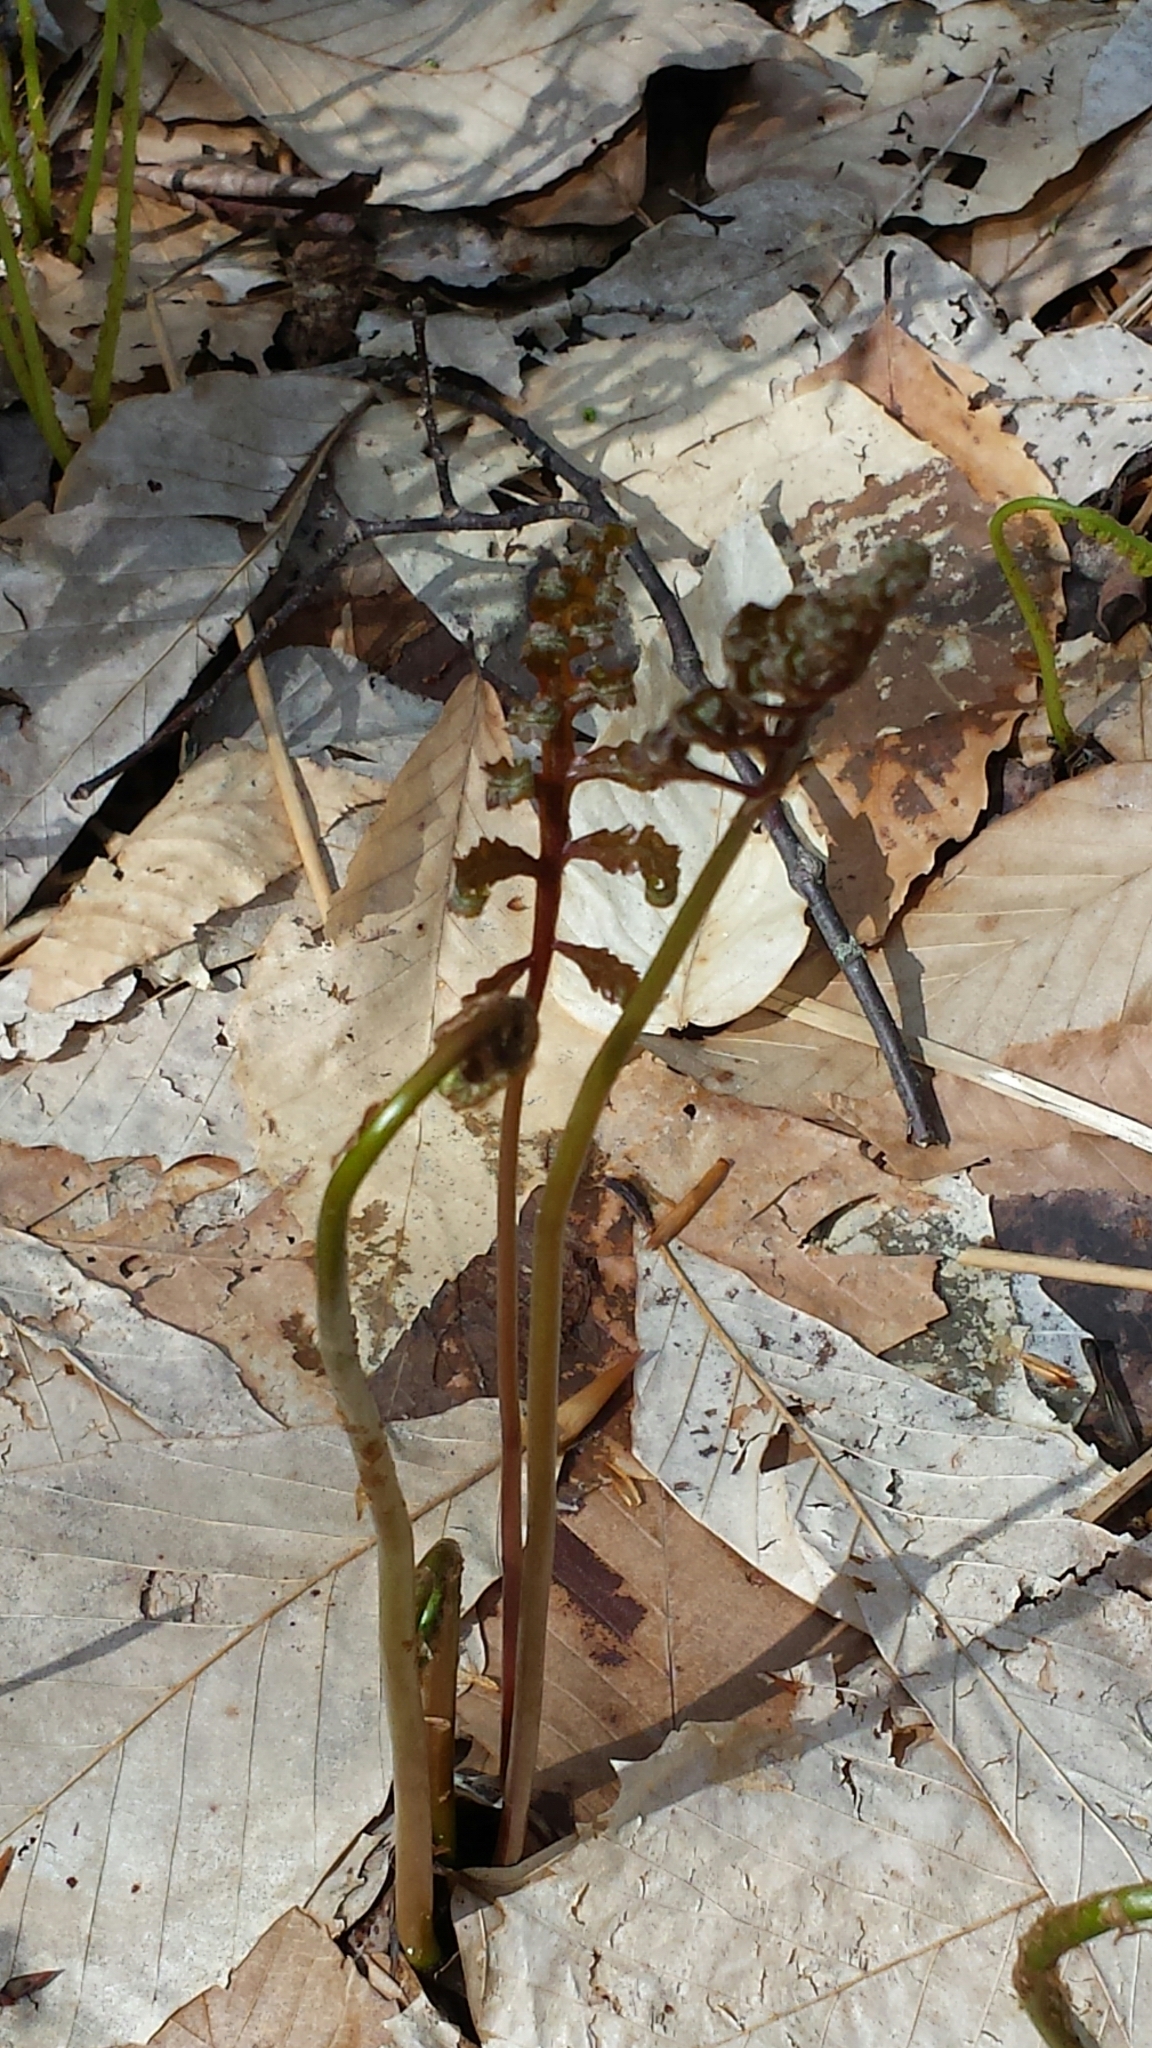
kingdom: Plantae
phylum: Tracheophyta
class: Polypodiopsida
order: Polypodiales
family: Onocleaceae
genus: Onoclea
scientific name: Onoclea sensibilis
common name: Sensitive fern
